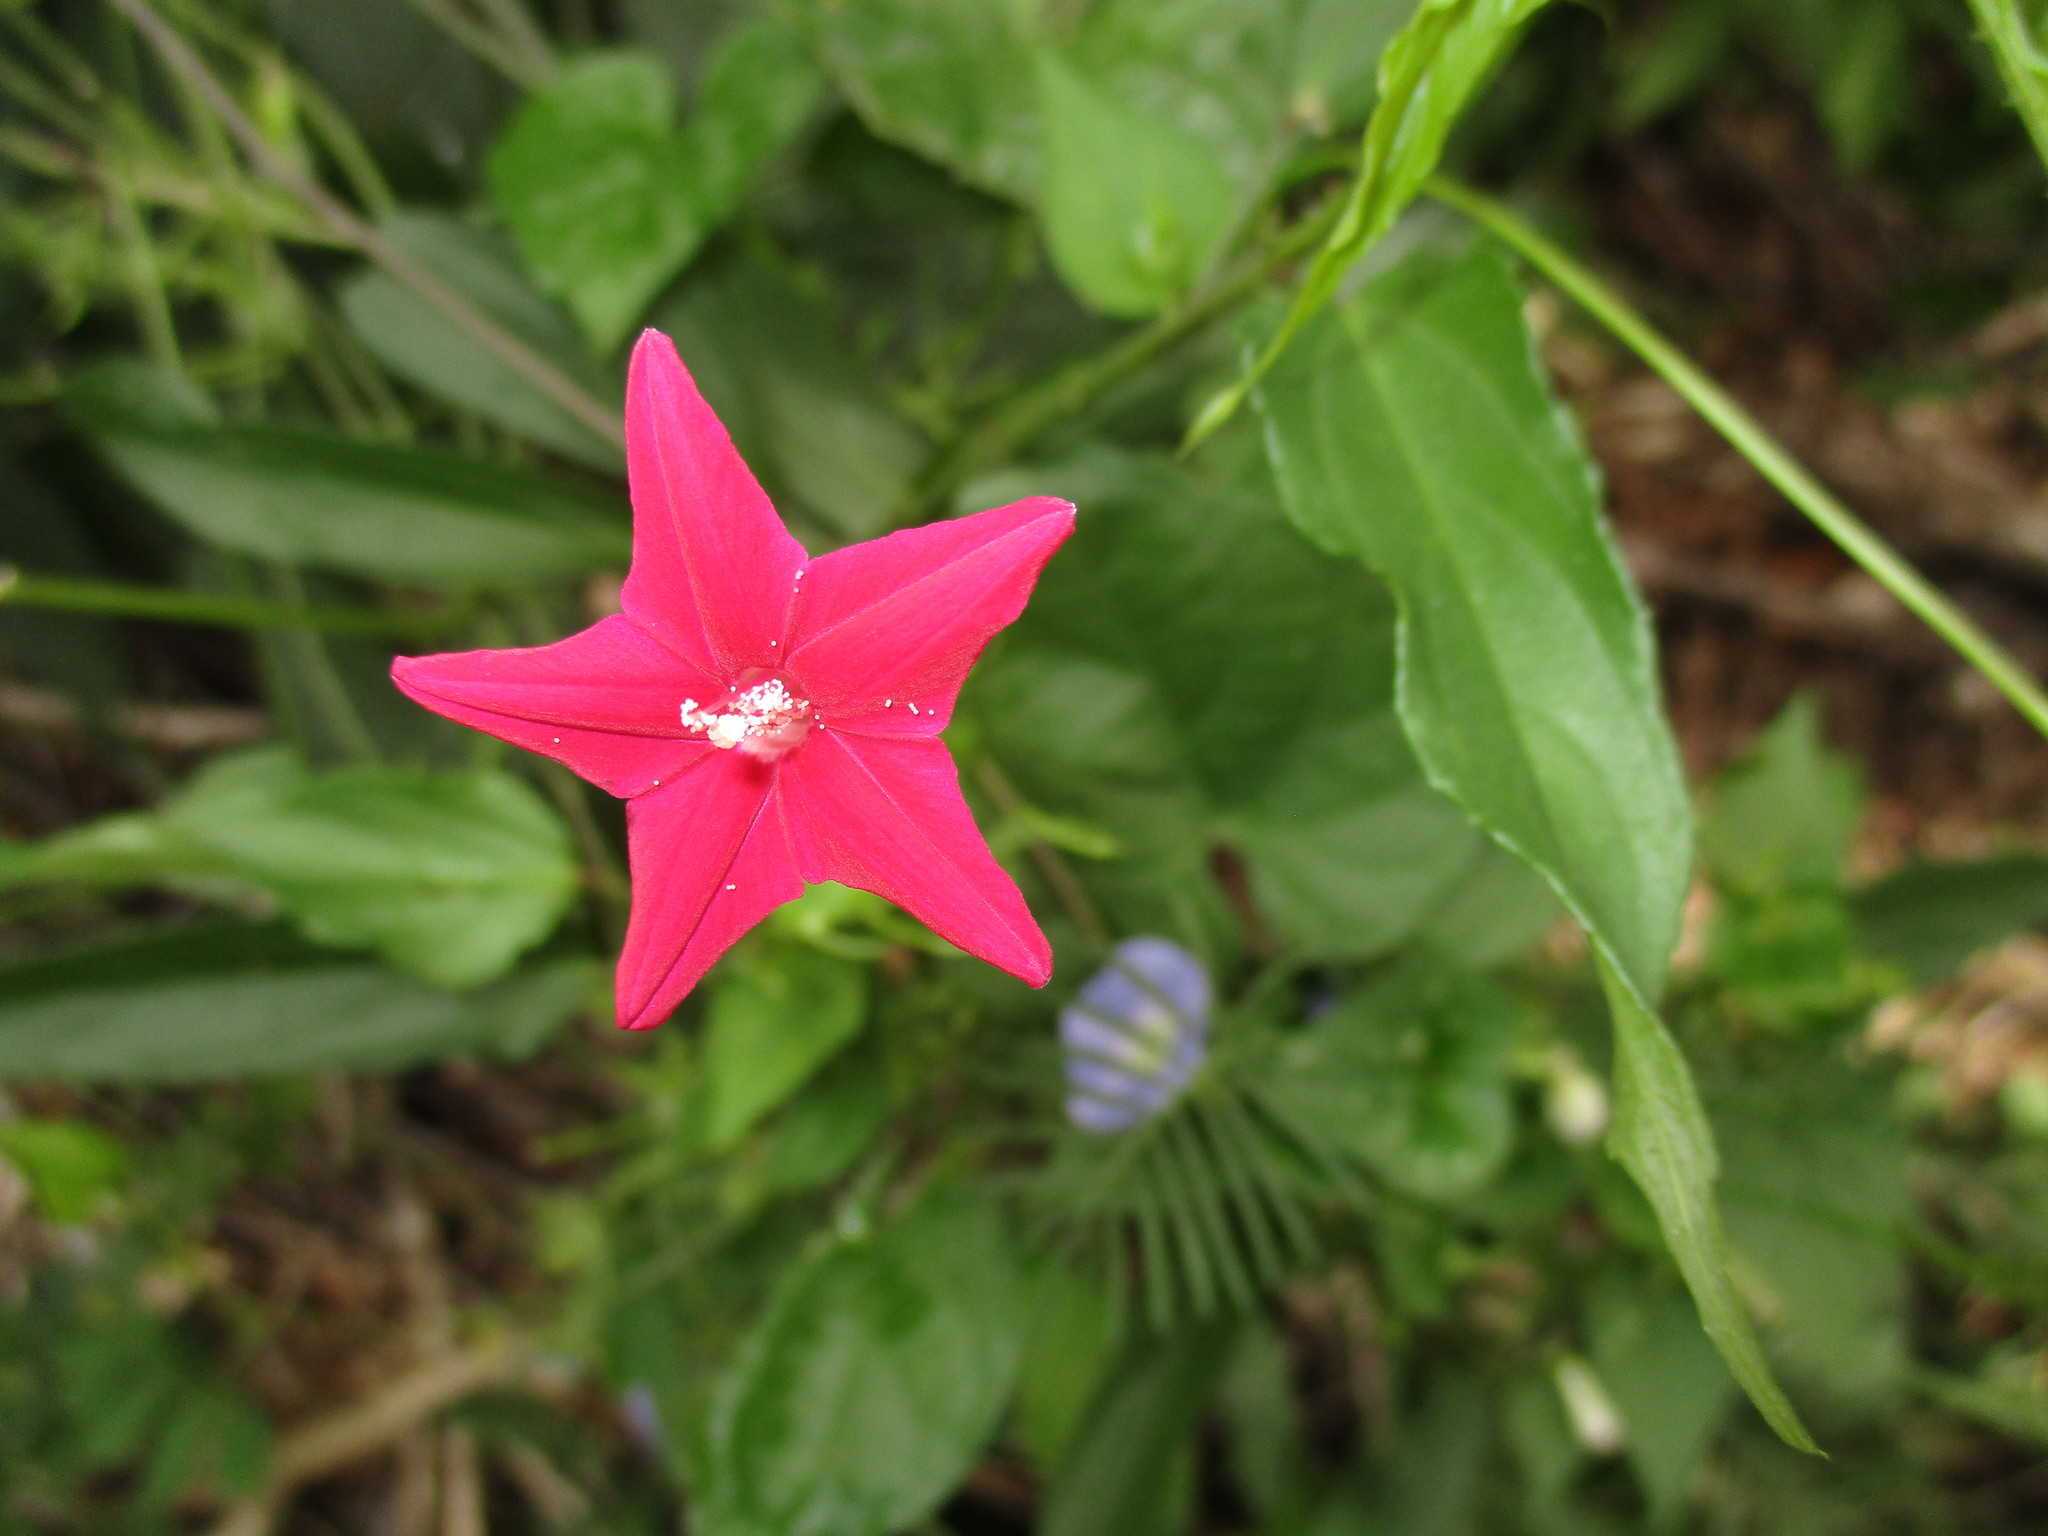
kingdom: Plantae
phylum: Tracheophyta
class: Magnoliopsida
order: Solanales
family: Convolvulaceae
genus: Ipomoea
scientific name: Ipomoea quamoclit
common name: Cypress vine
